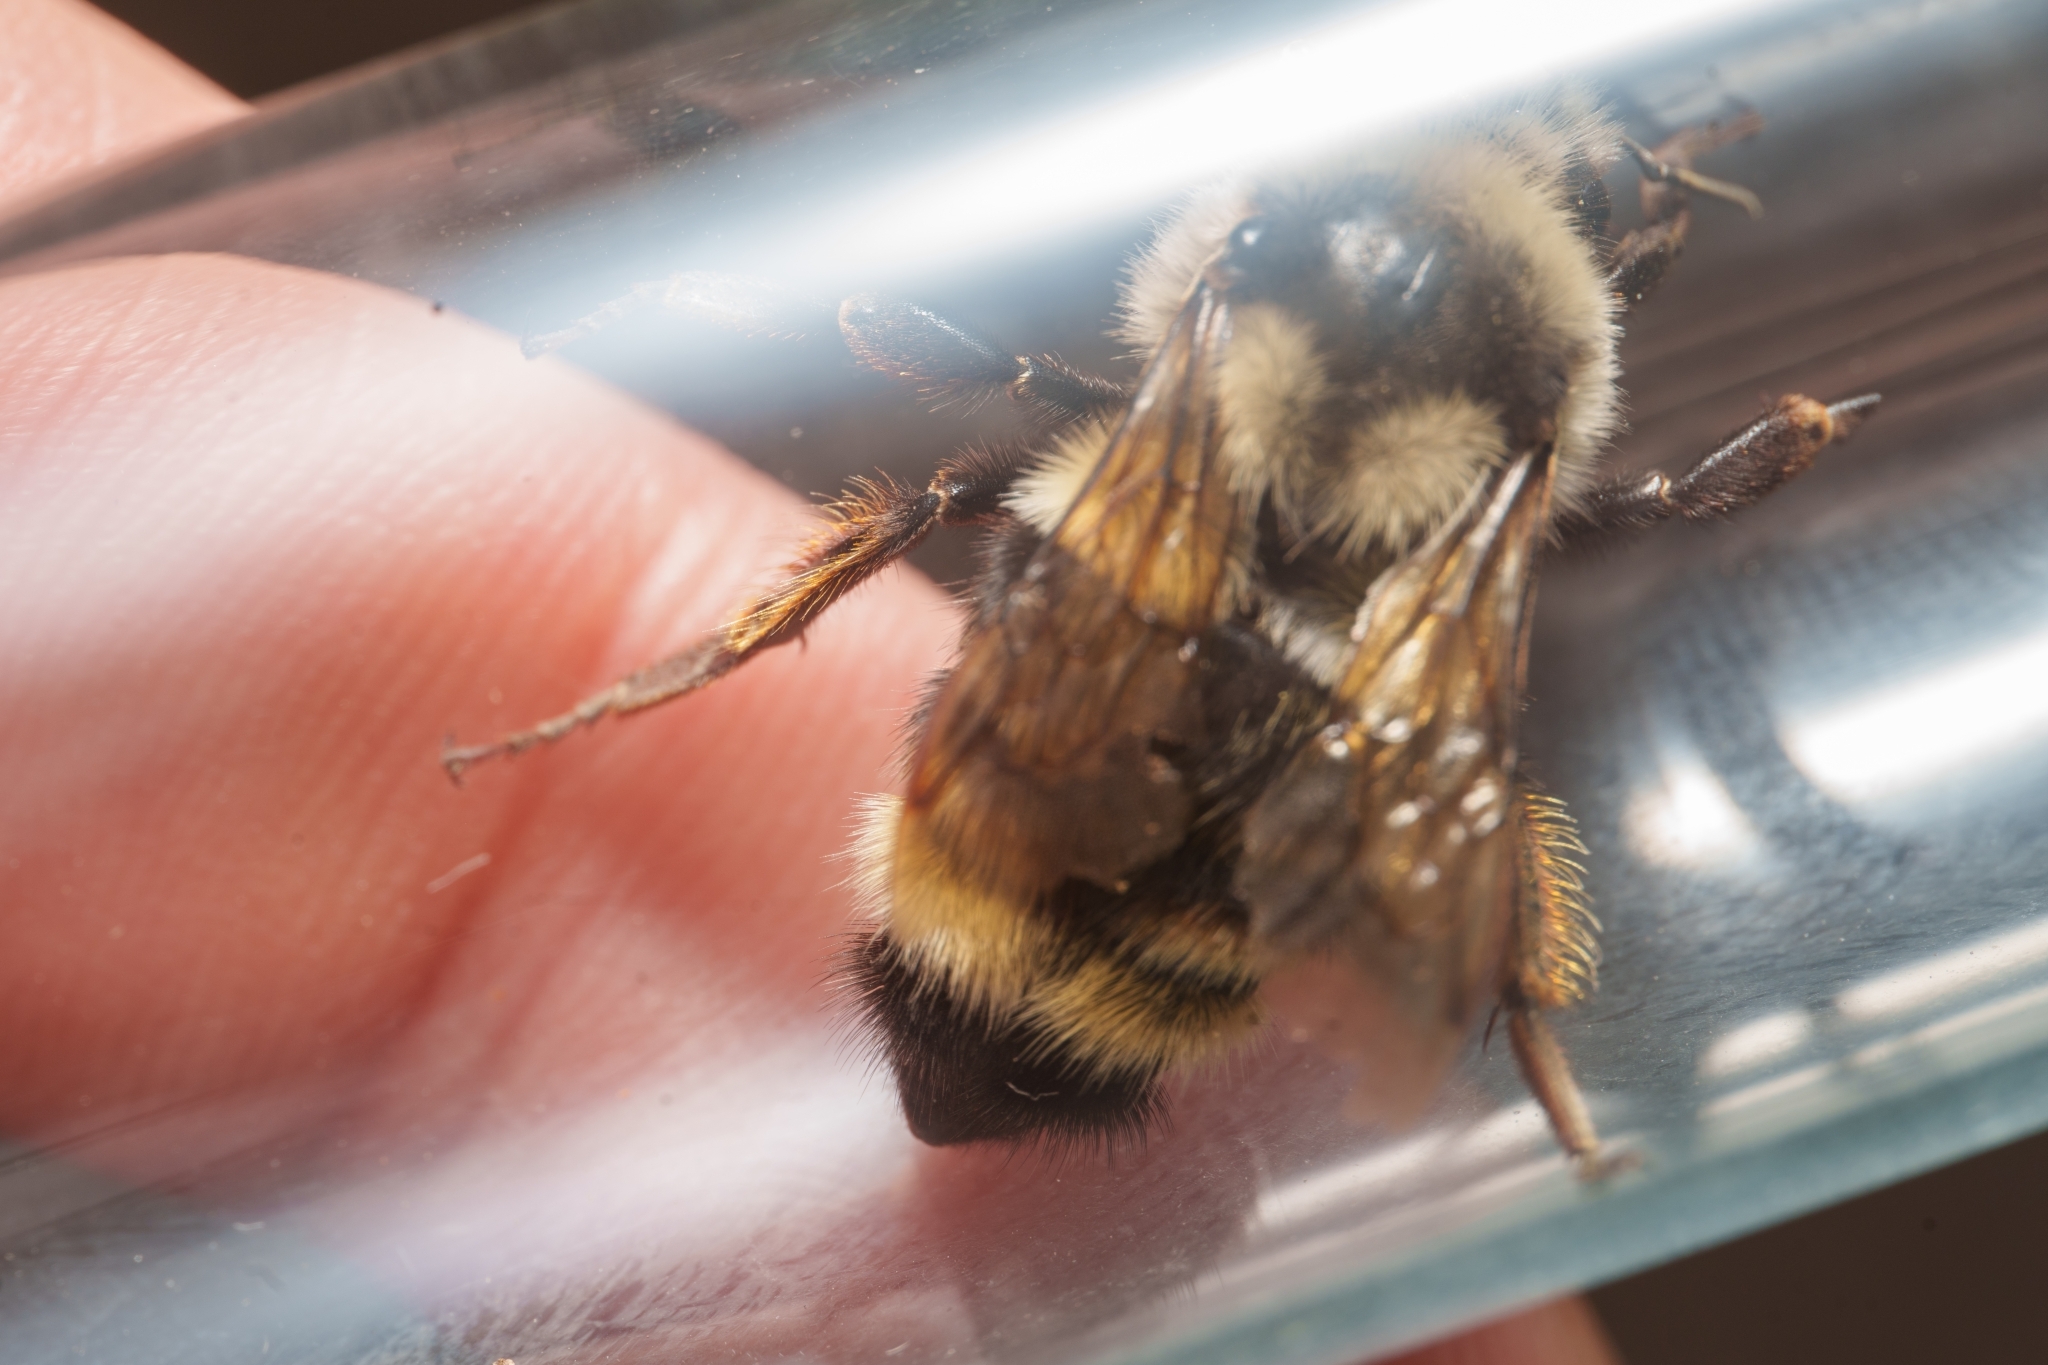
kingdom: Animalia
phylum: Arthropoda
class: Insecta
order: Hymenoptera
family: Apidae
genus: Bombus
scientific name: Bombus vancouverensis
